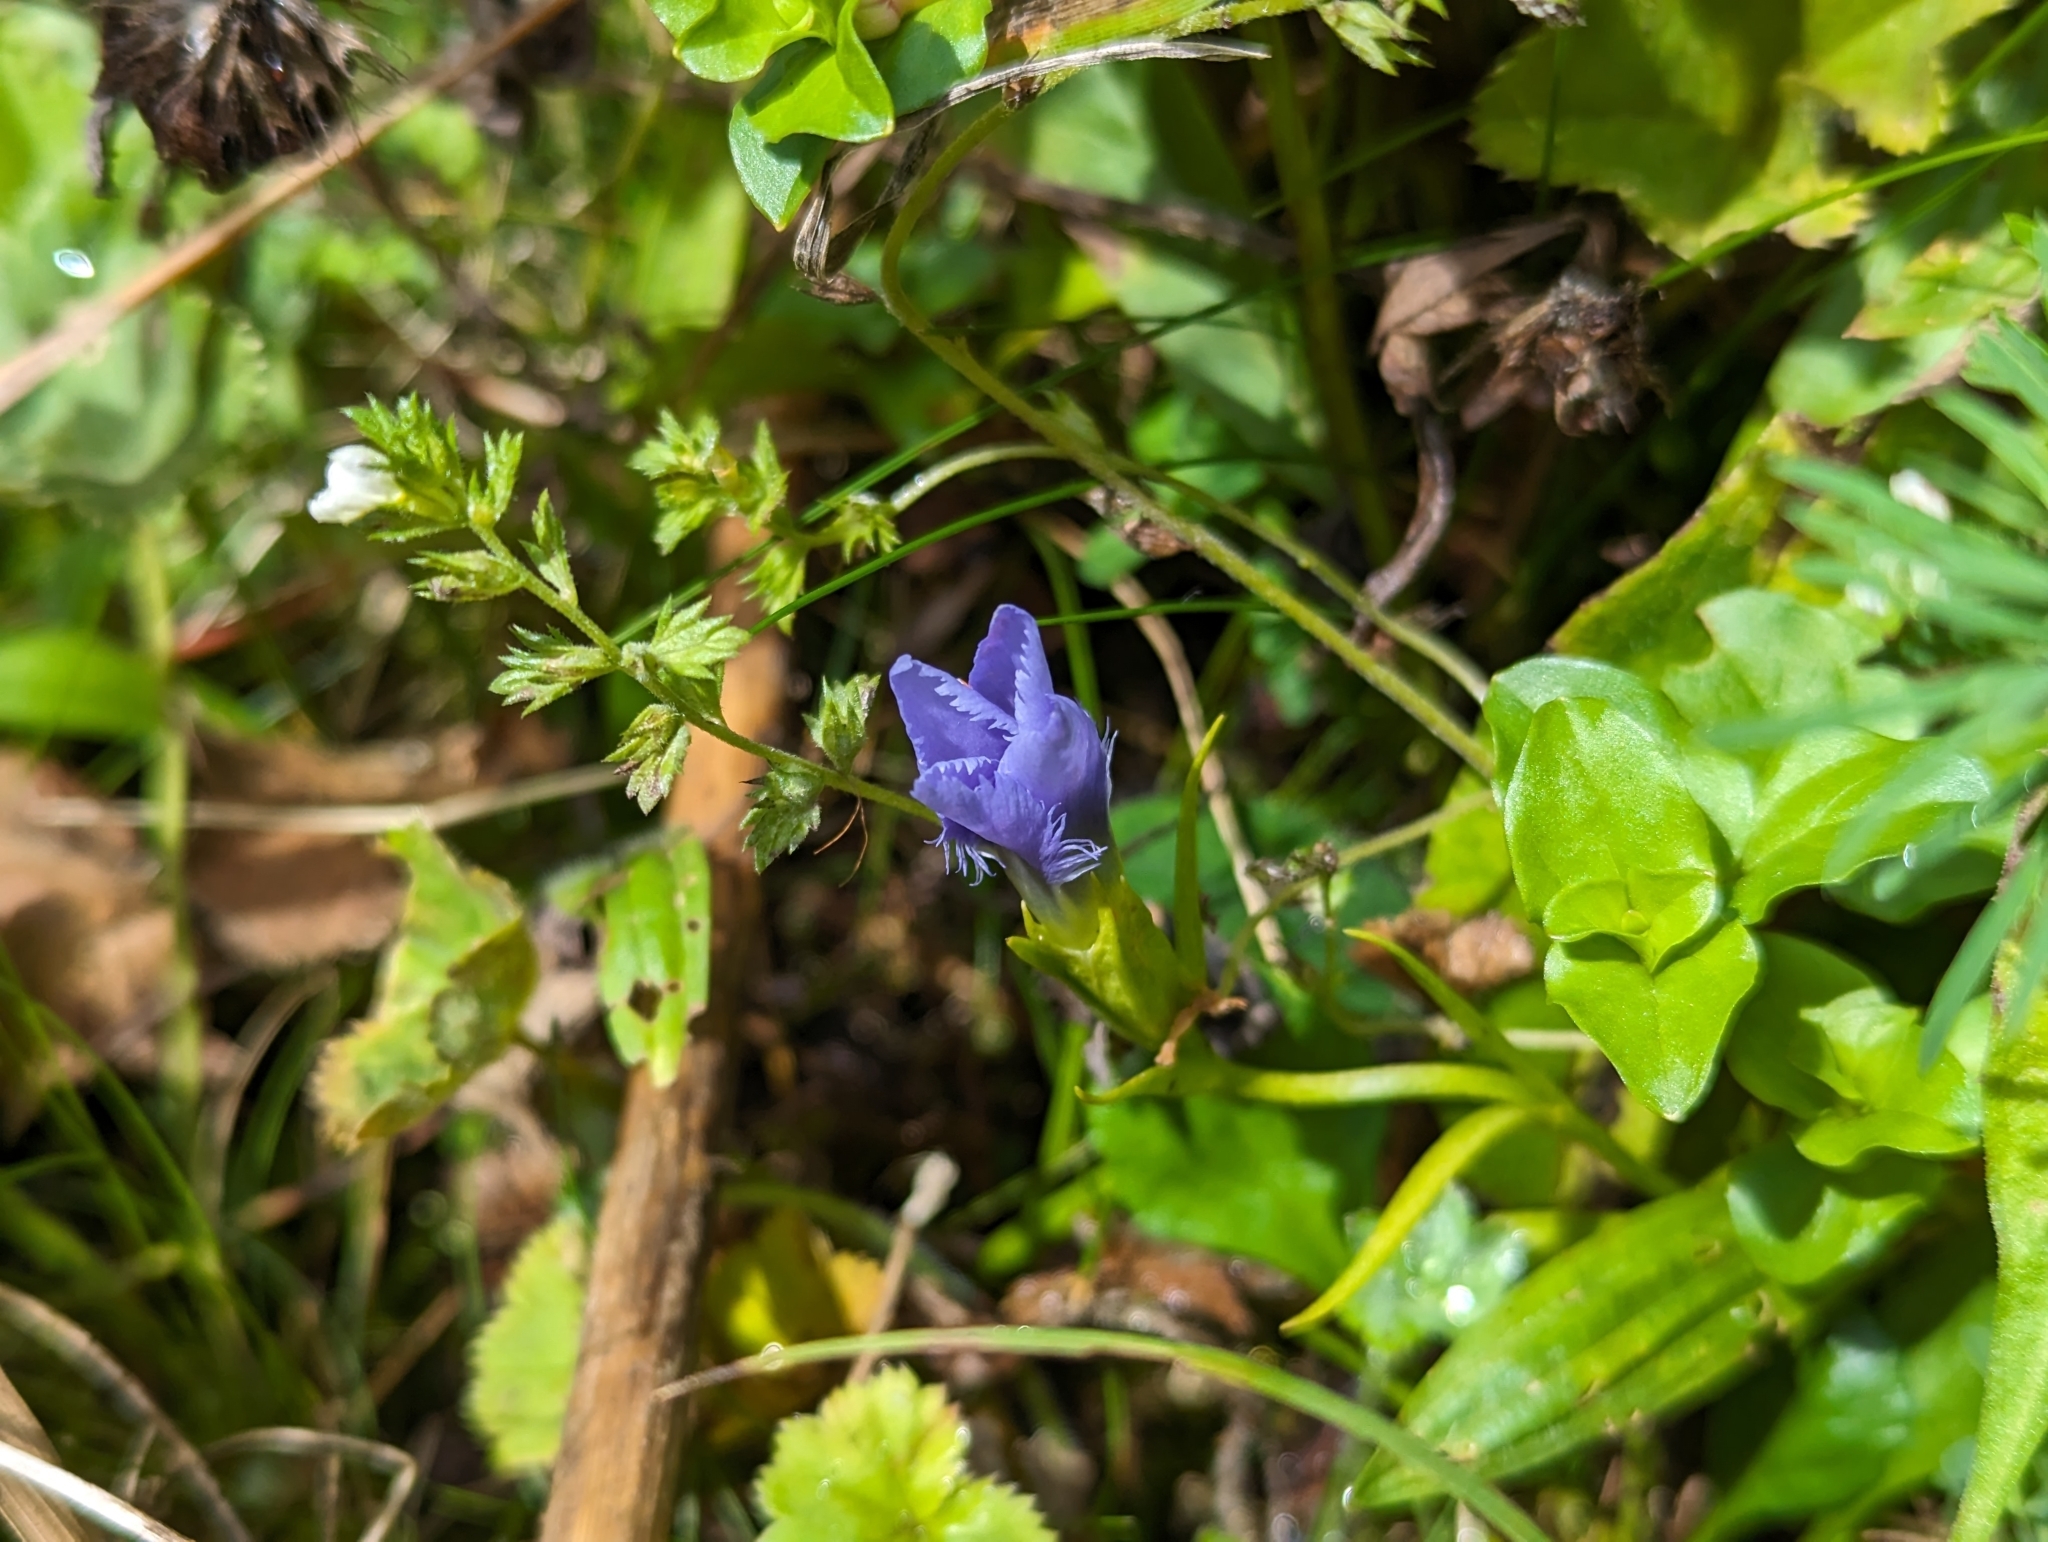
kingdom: Plantae
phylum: Tracheophyta
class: Magnoliopsida
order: Gentianales
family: Gentianaceae
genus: Gentianopsis
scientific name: Gentianopsis ciliata
